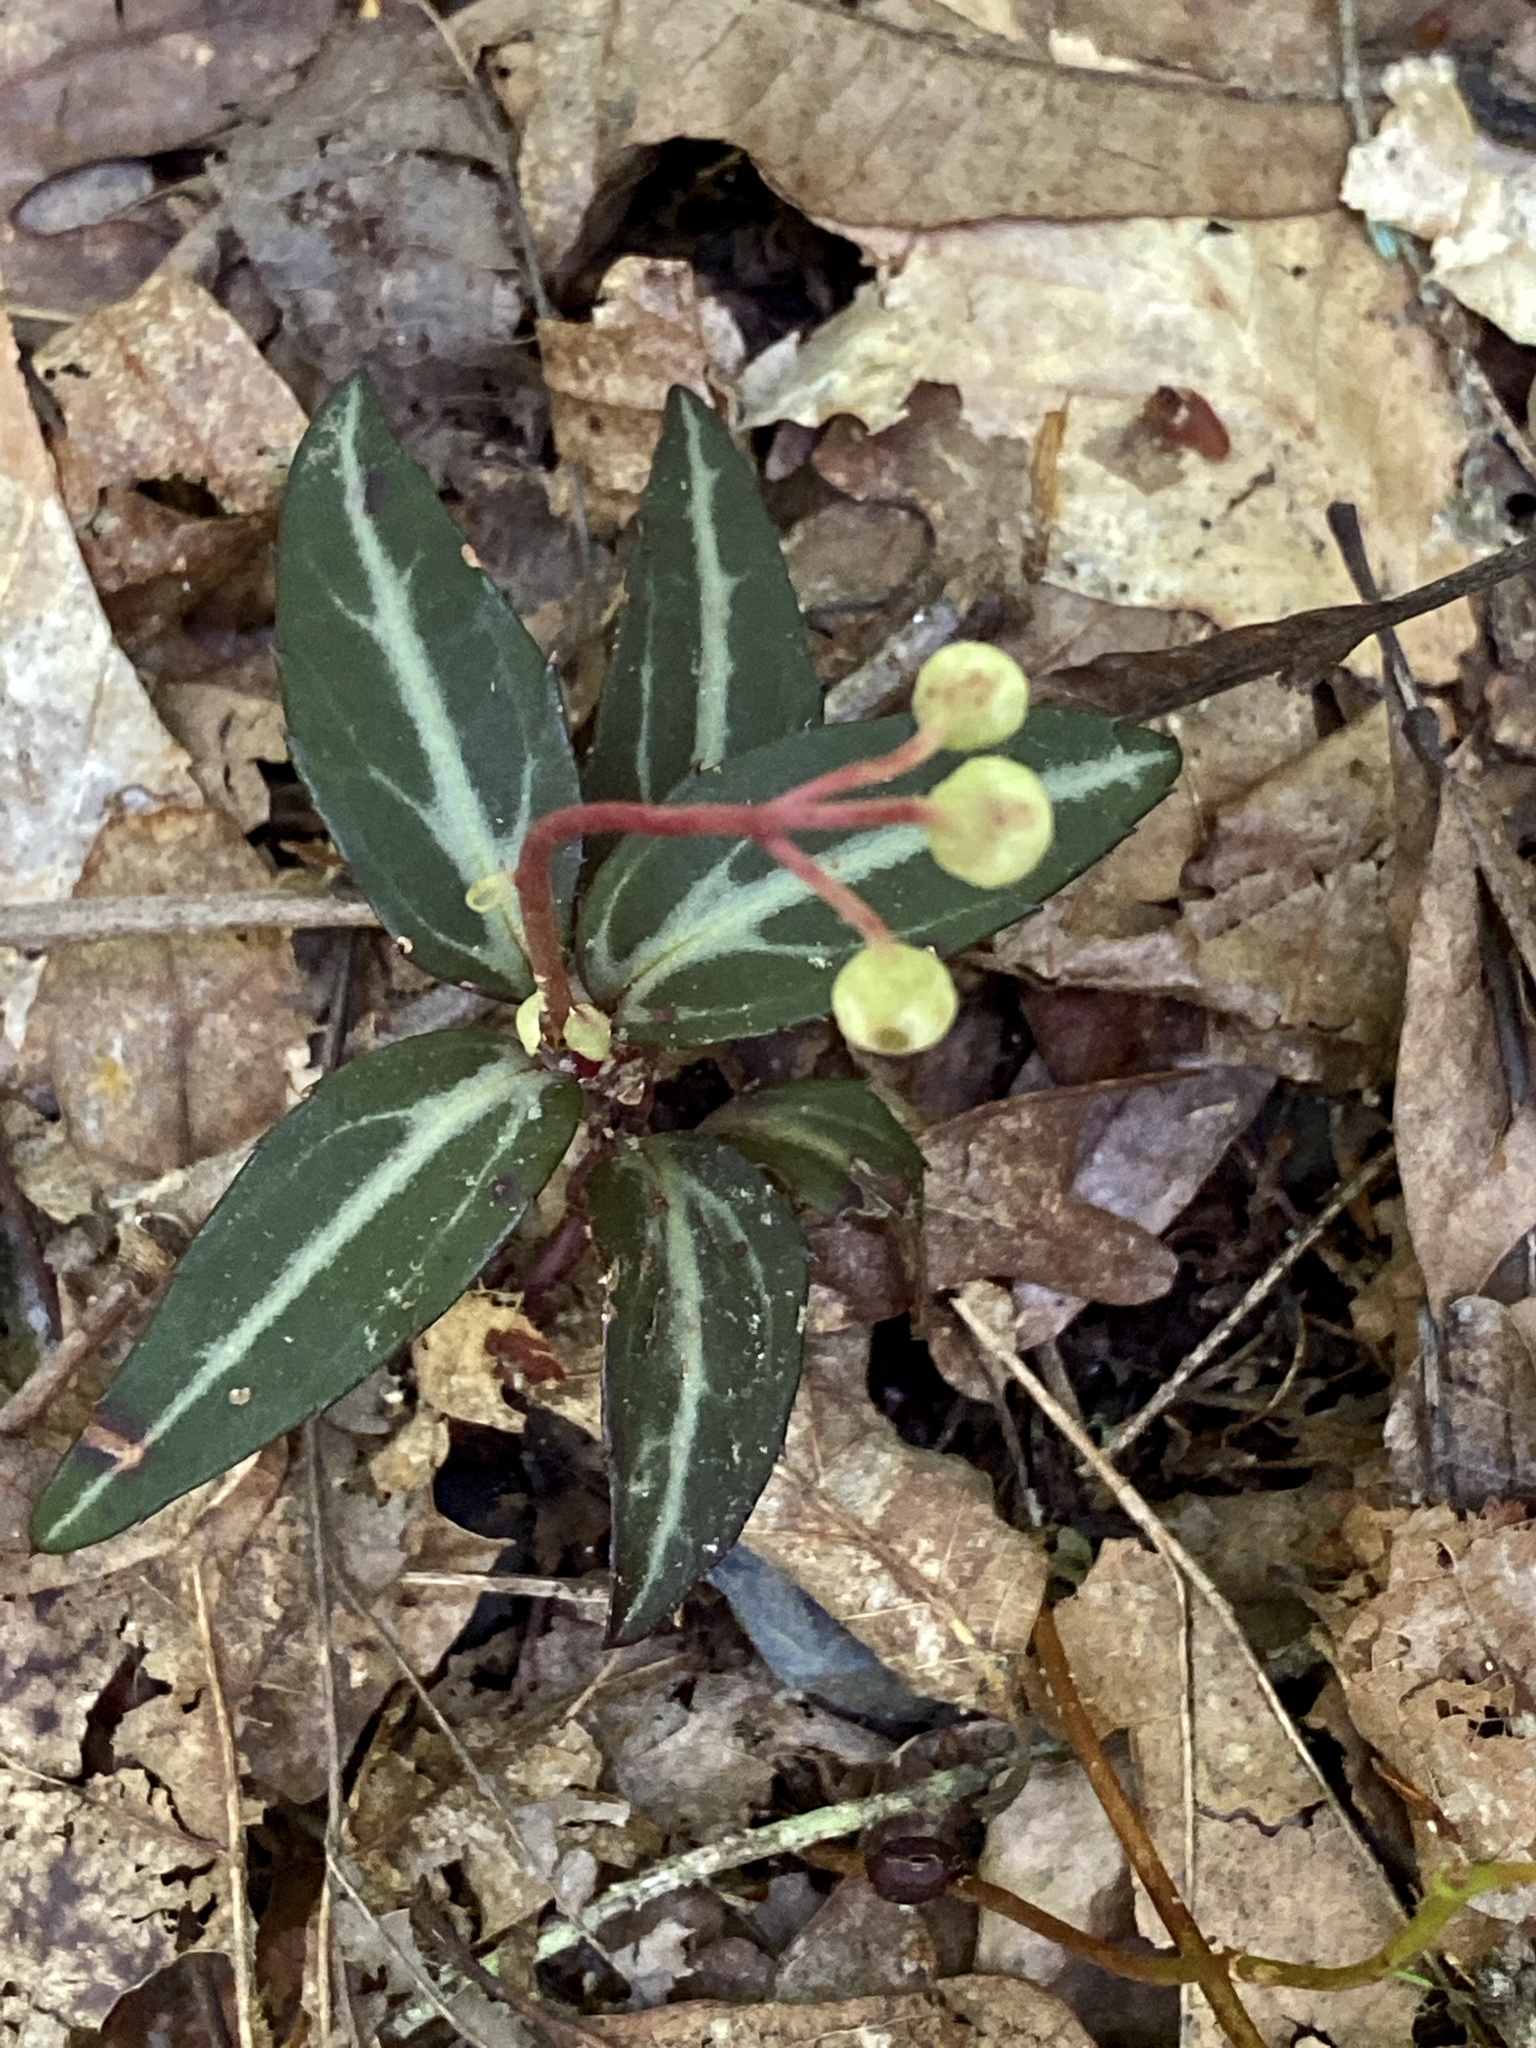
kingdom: Plantae
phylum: Tracheophyta
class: Magnoliopsida
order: Ericales
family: Ericaceae
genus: Chimaphila
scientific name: Chimaphila maculata
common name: Spotted pipsissewa
